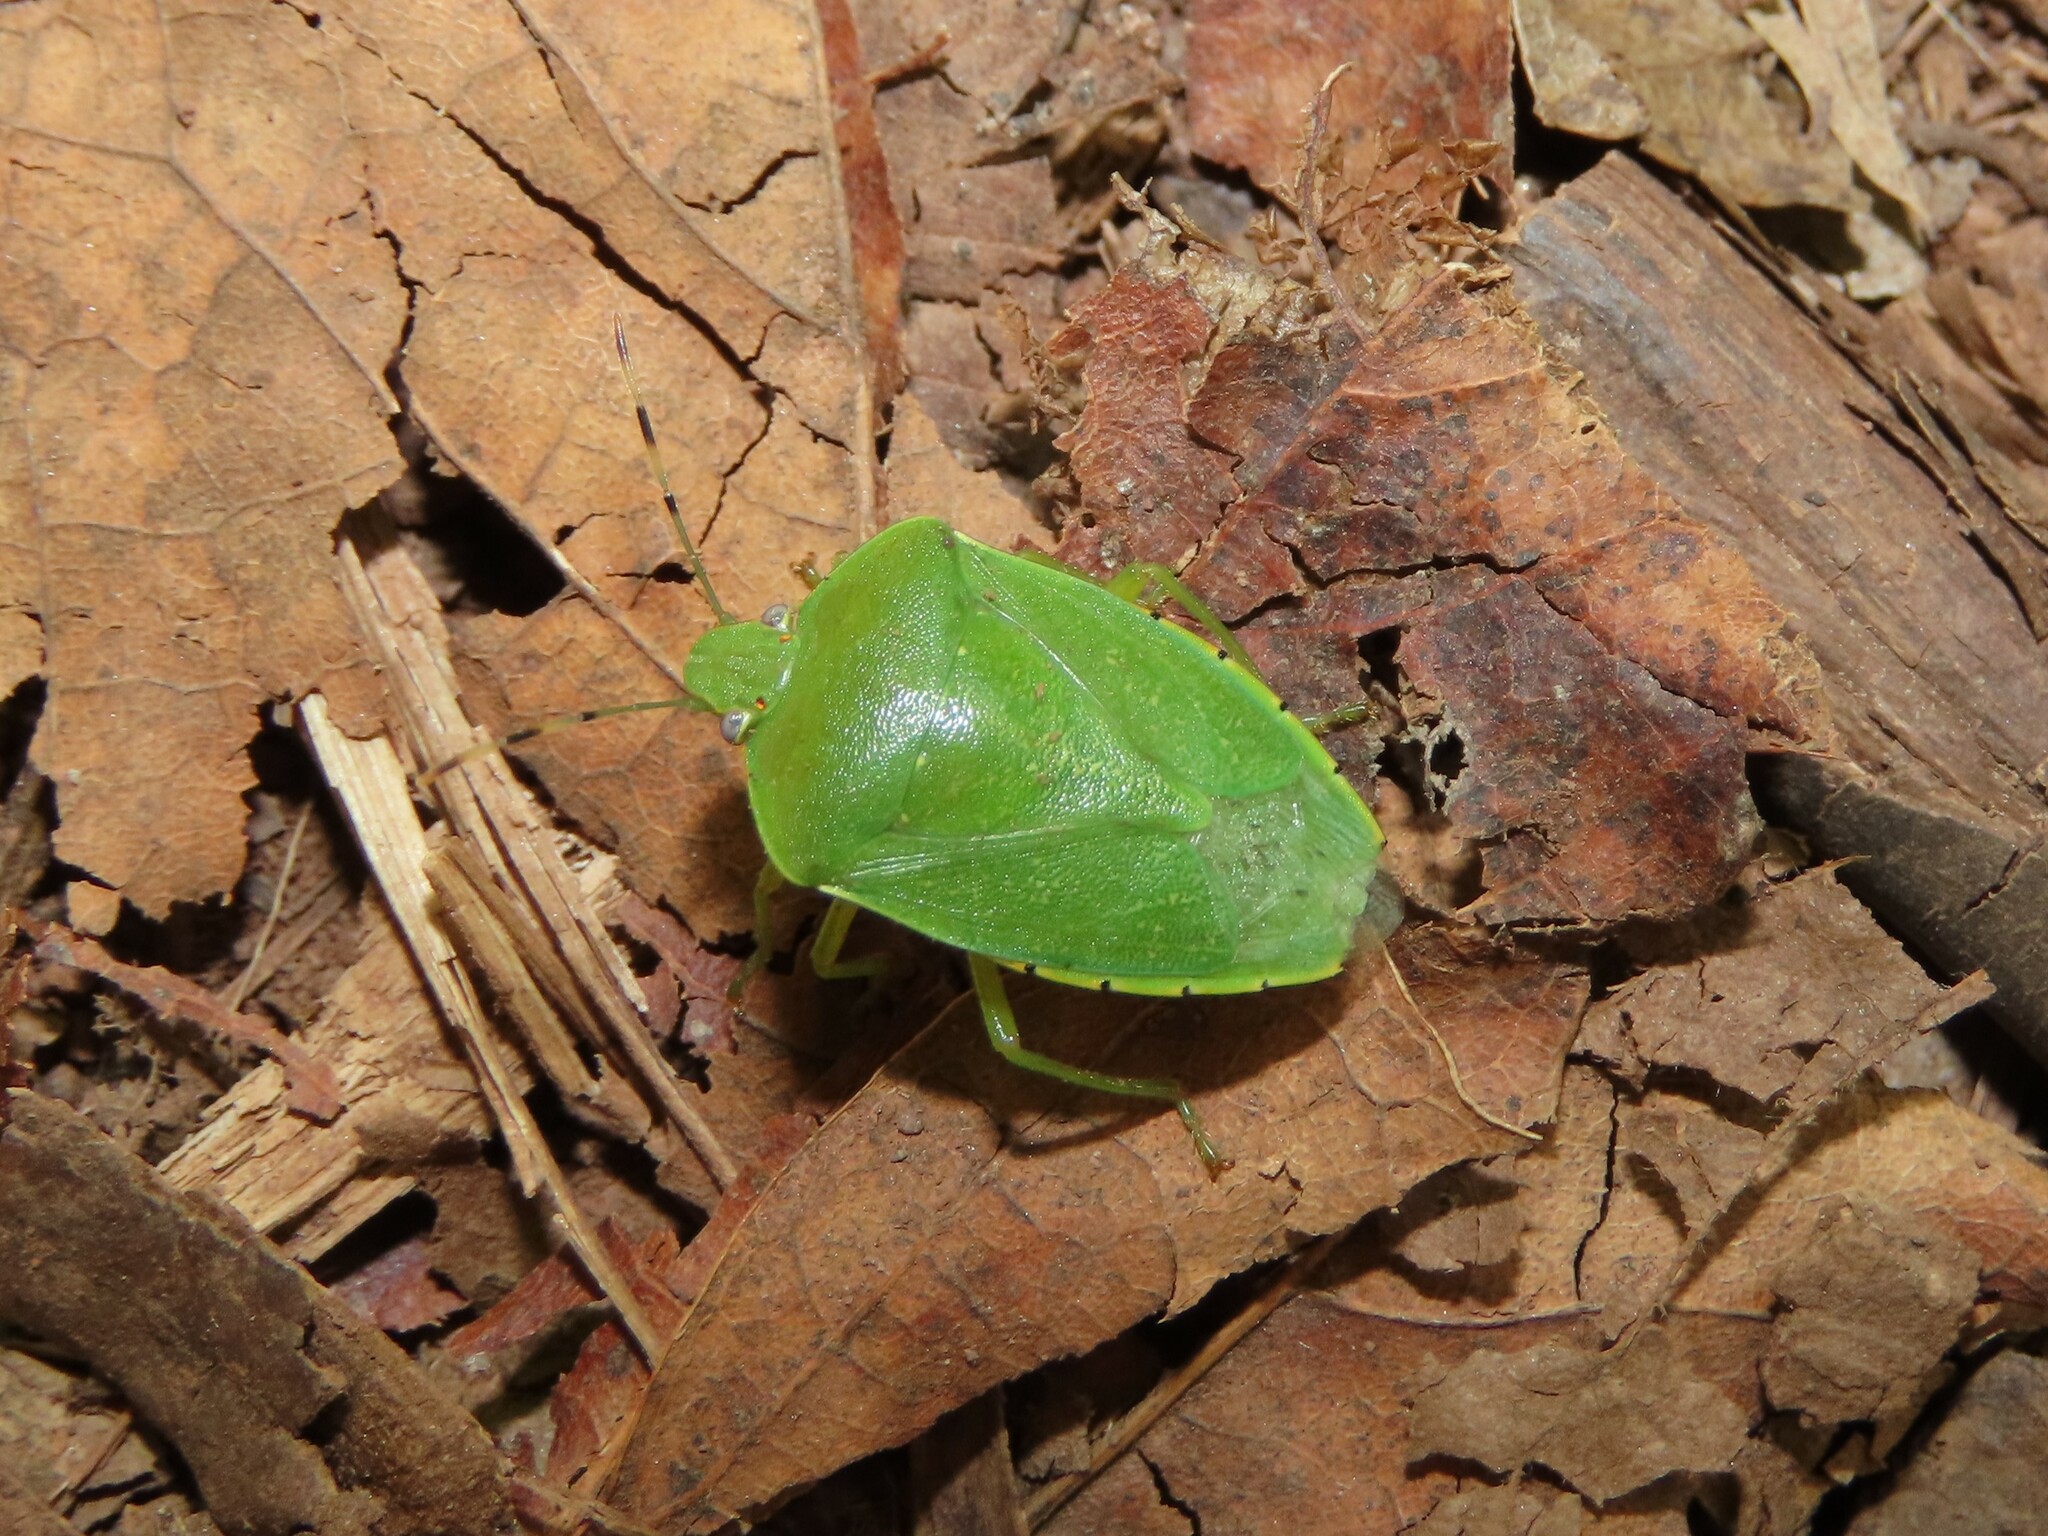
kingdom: Animalia
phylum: Arthropoda
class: Insecta
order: Hemiptera
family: Pentatomidae
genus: Chinavia
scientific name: Chinavia hilaris
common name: Green stink bug
